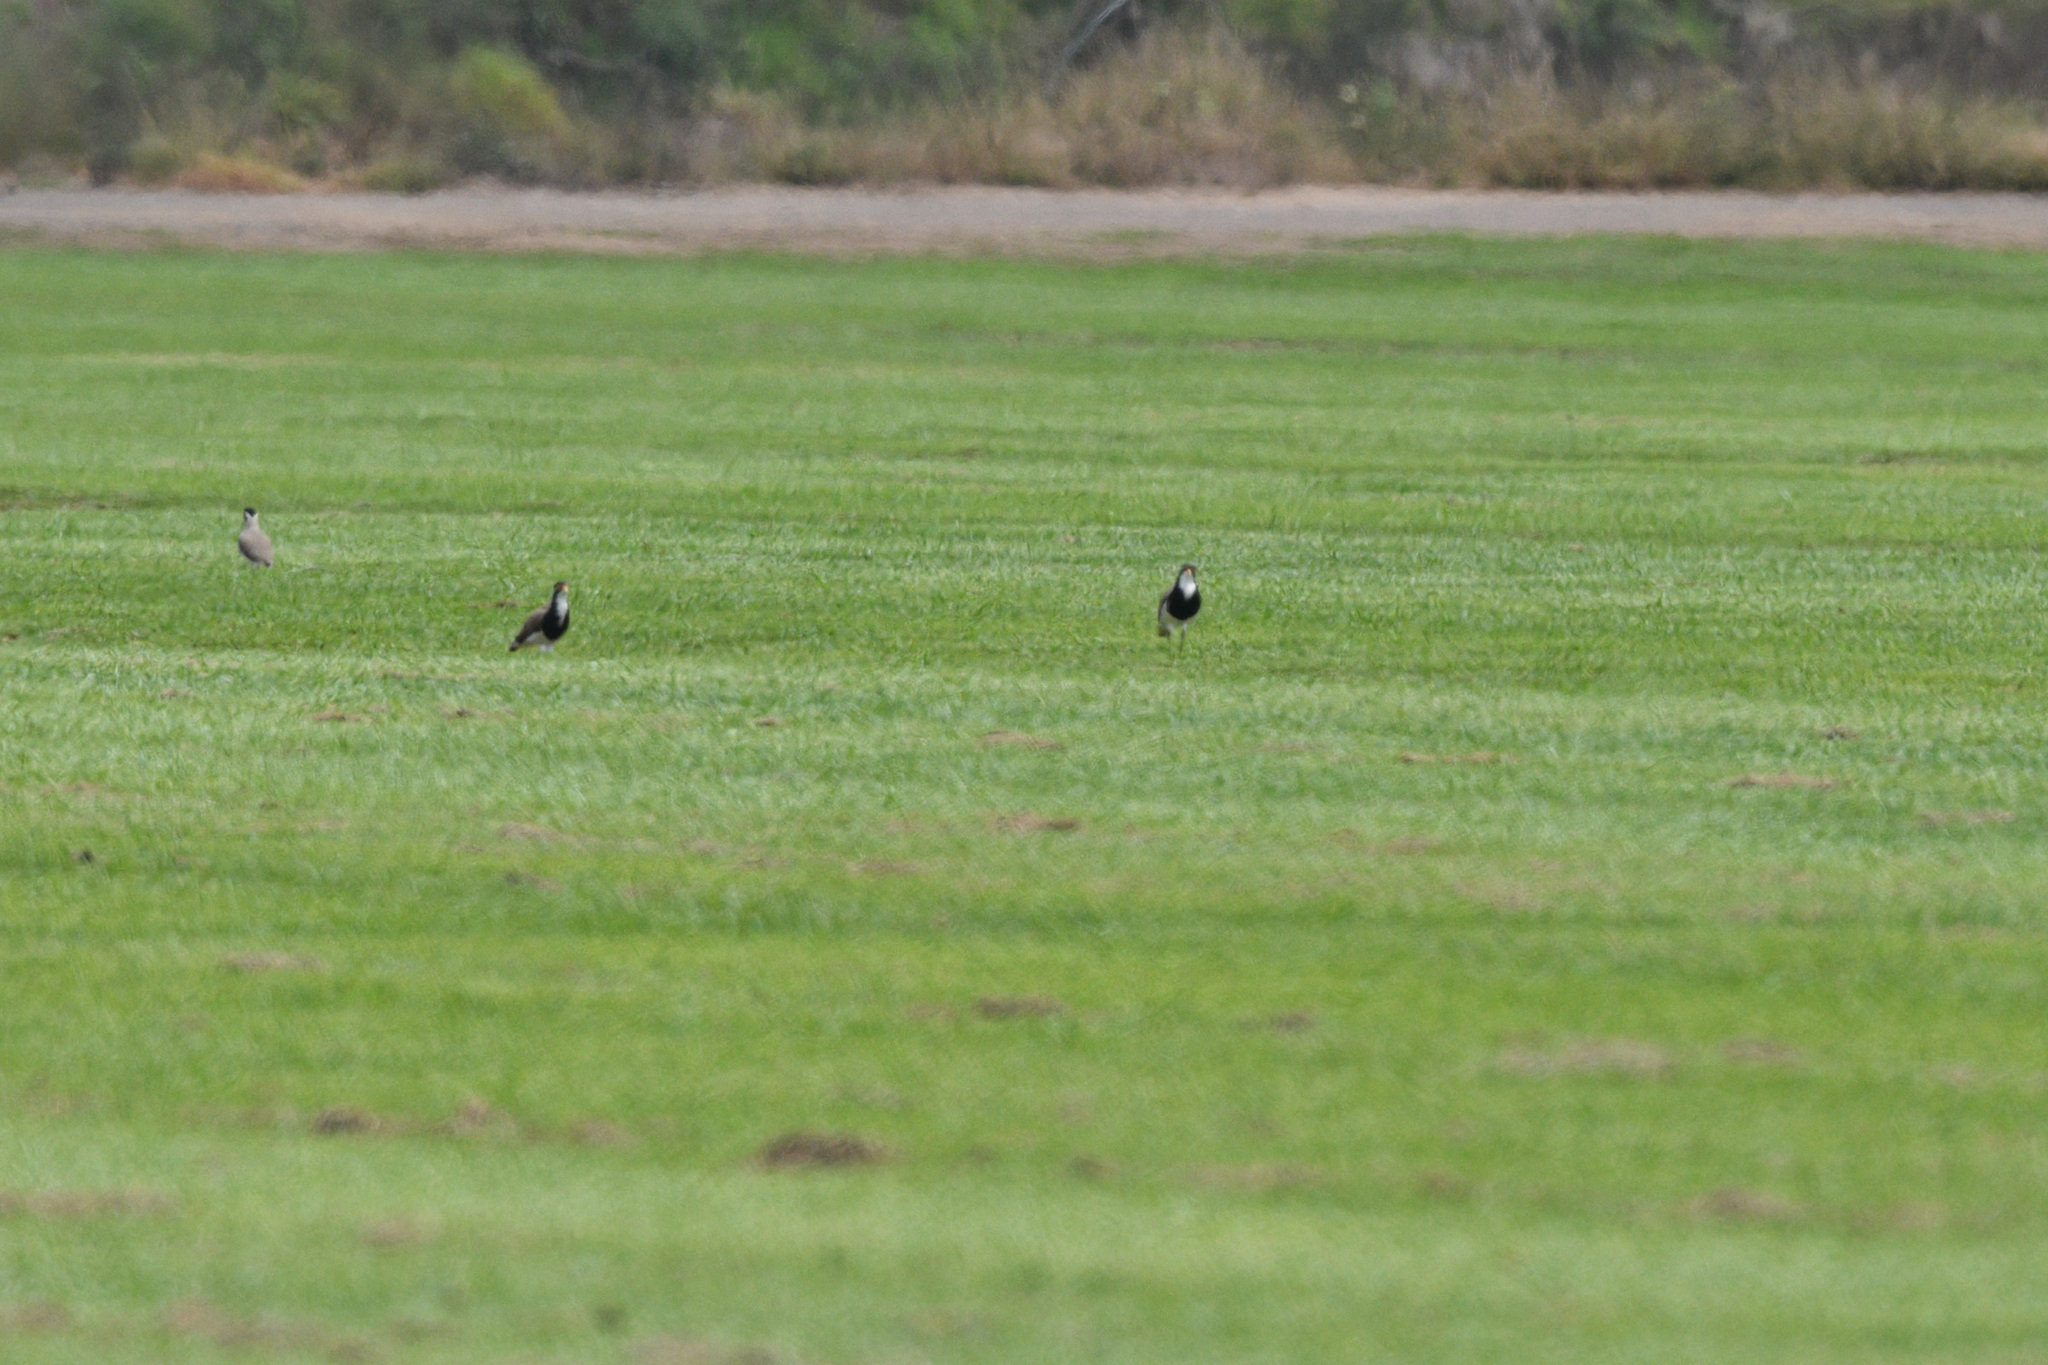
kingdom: Animalia
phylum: Chordata
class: Aves
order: Charadriiformes
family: Charadriidae
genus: Vanellus
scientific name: Vanellus tricolor
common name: Banded lapwing
